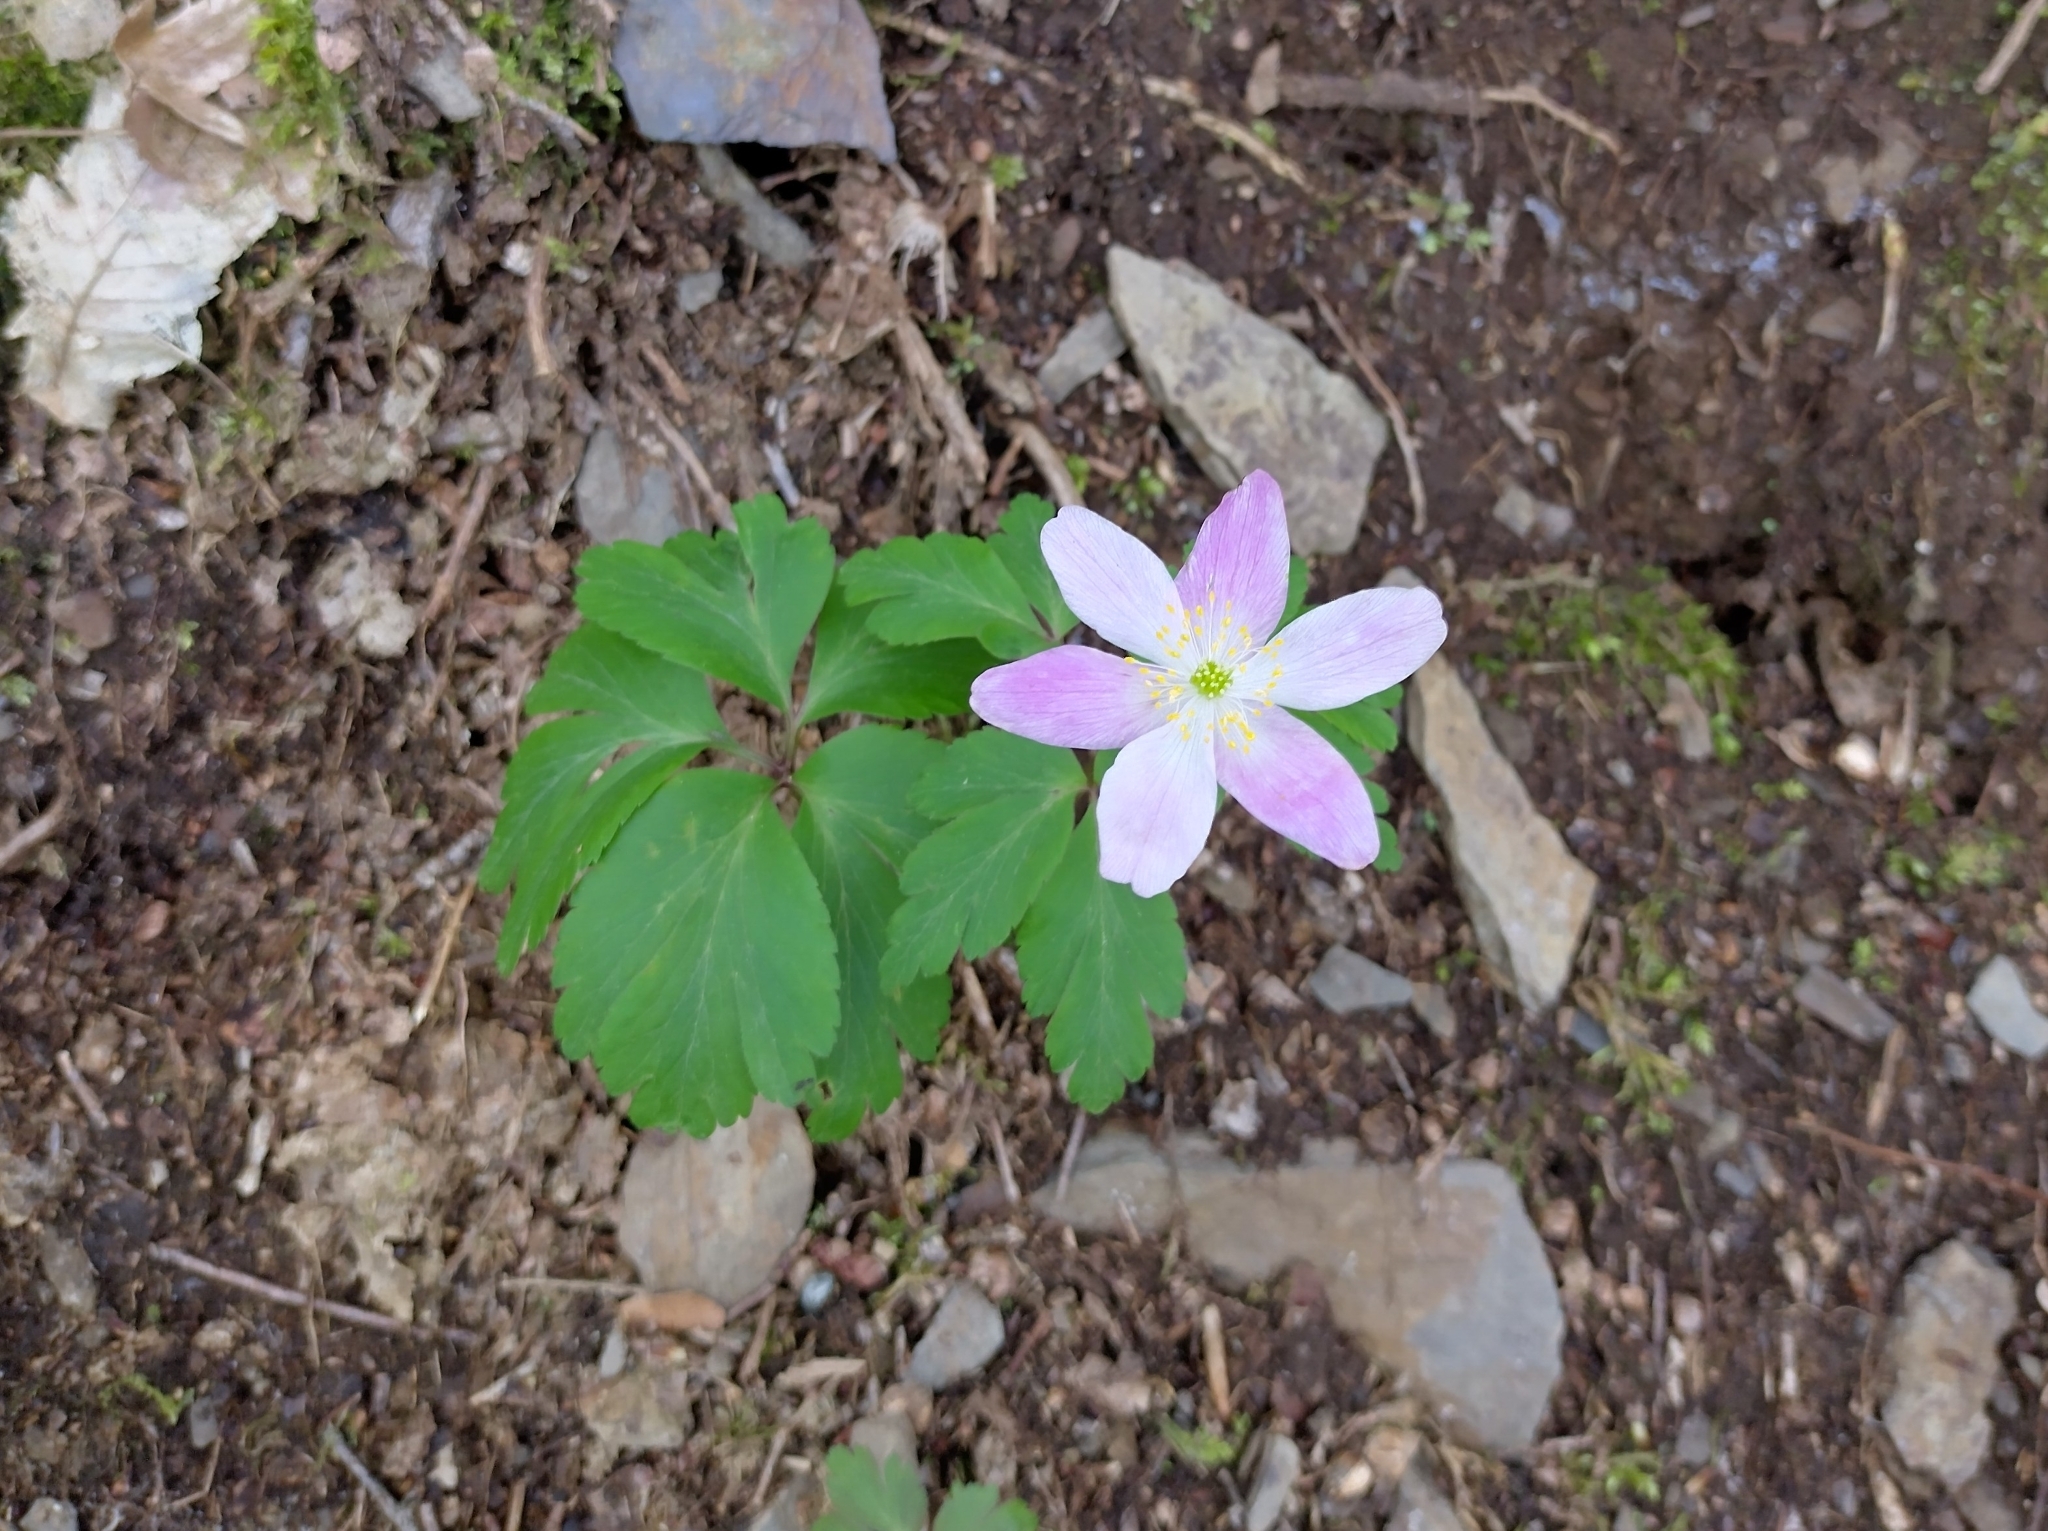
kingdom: Plantae
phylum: Tracheophyta
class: Magnoliopsida
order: Ranunculales
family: Ranunculaceae
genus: Anemone
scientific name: Anemone nemorosa
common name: Wood anemone
